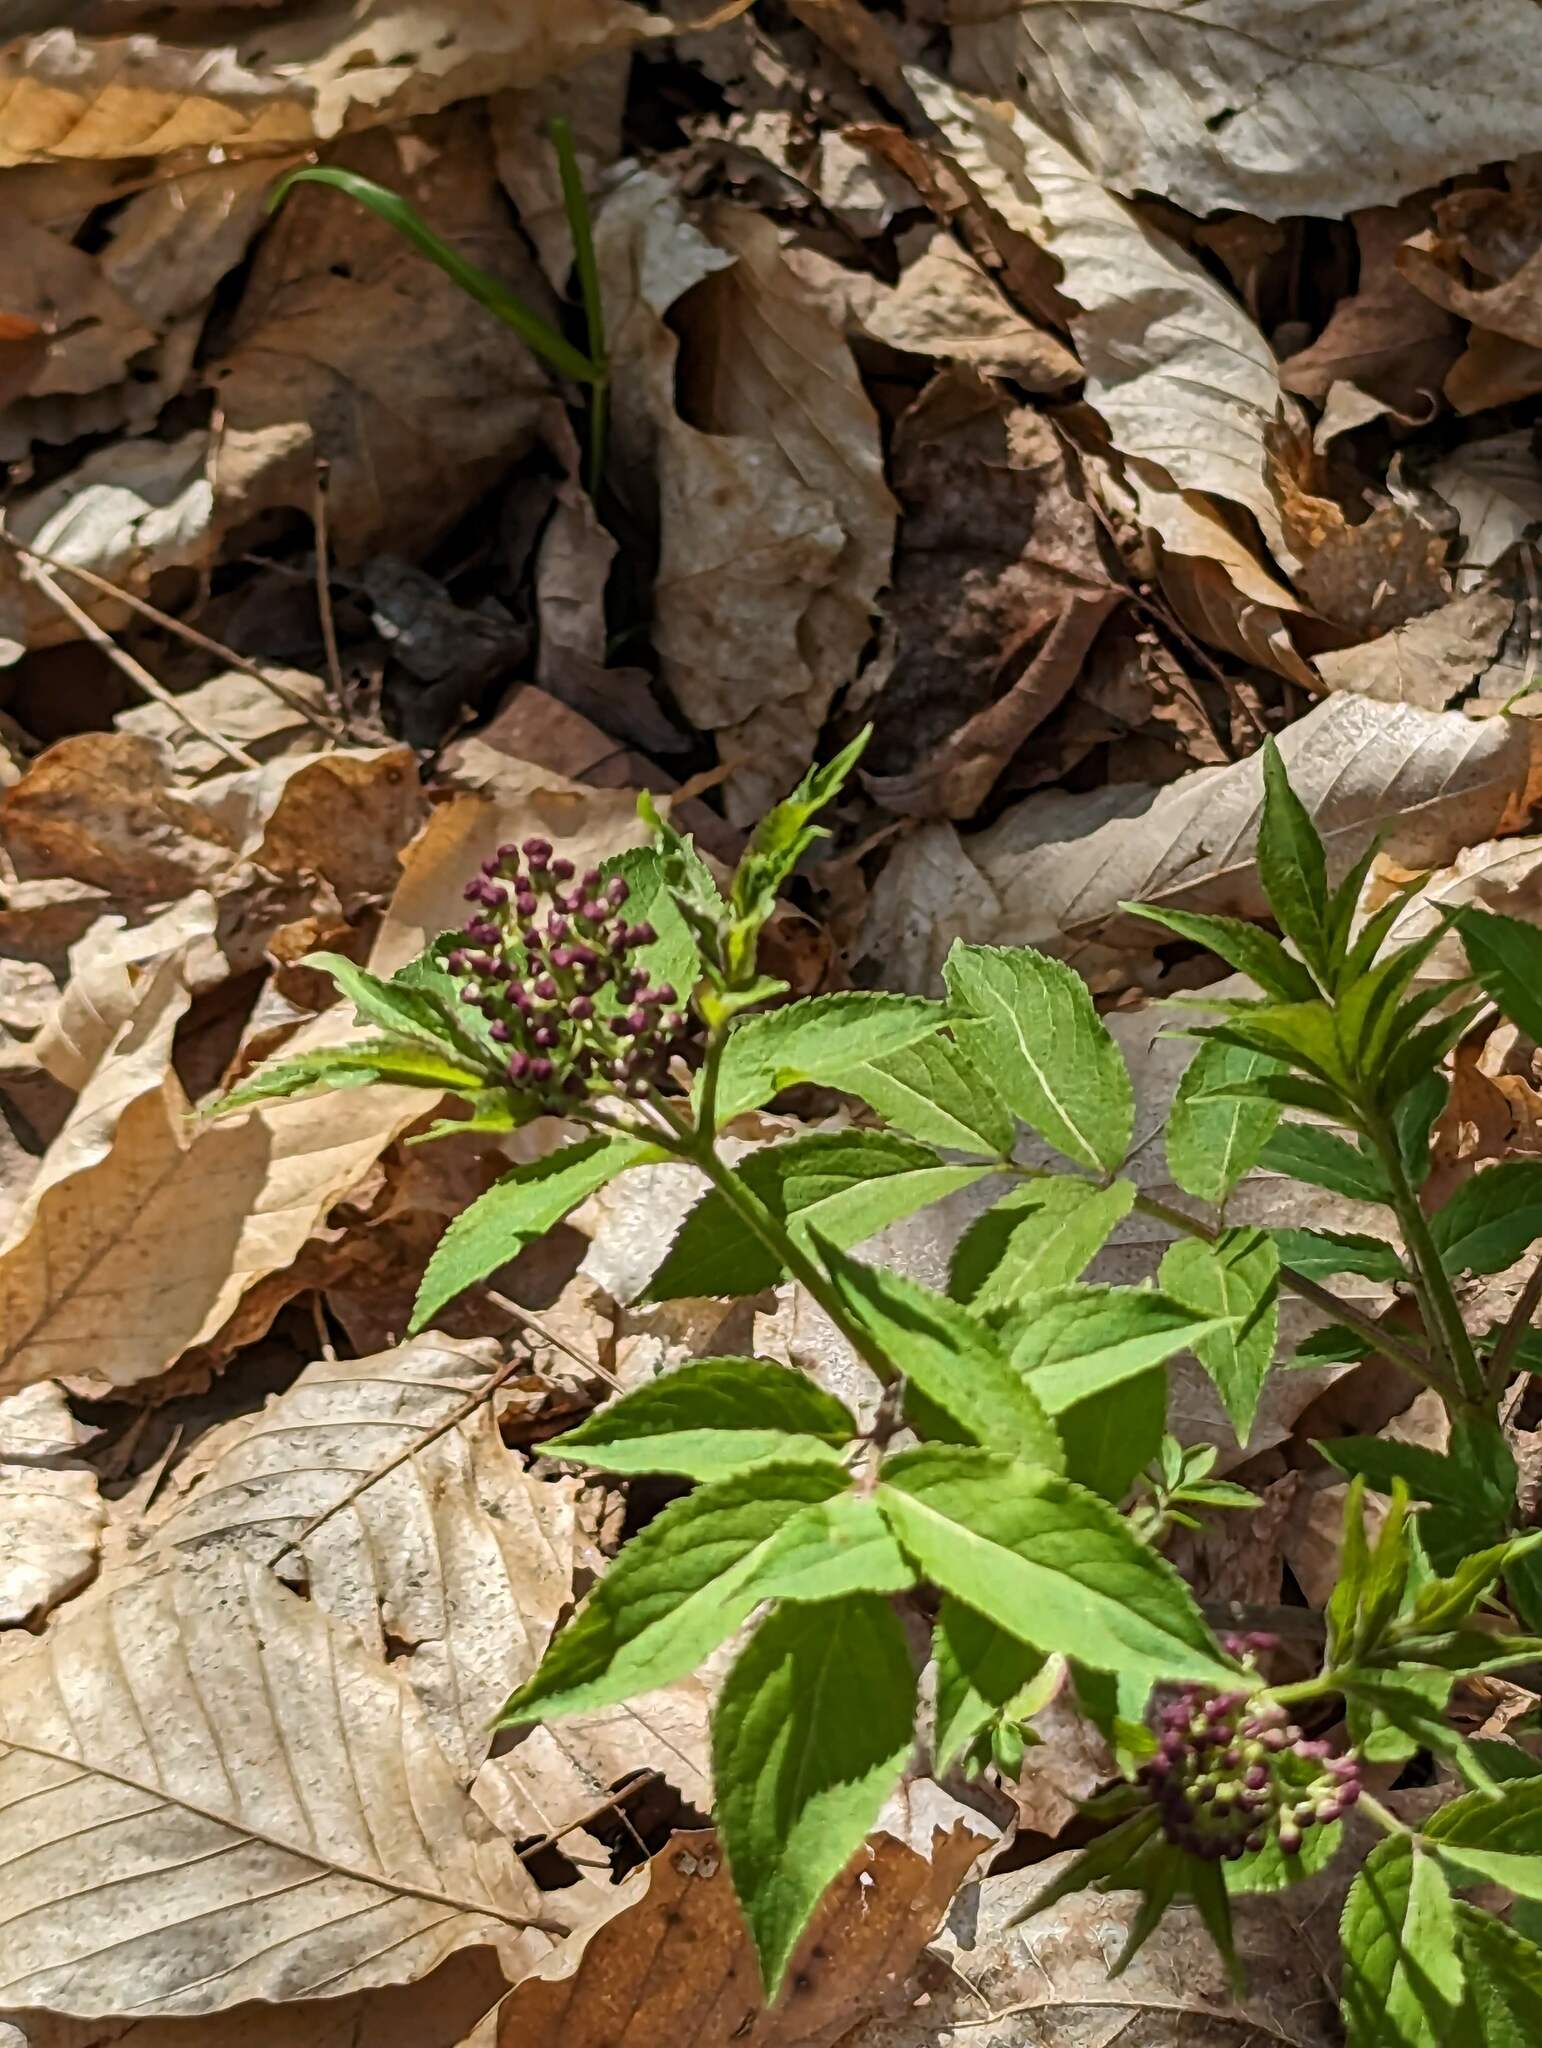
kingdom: Plantae
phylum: Tracheophyta
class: Magnoliopsida
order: Dipsacales
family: Viburnaceae
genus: Sambucus
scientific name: Sambucus racemosa
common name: Red-berried elder
